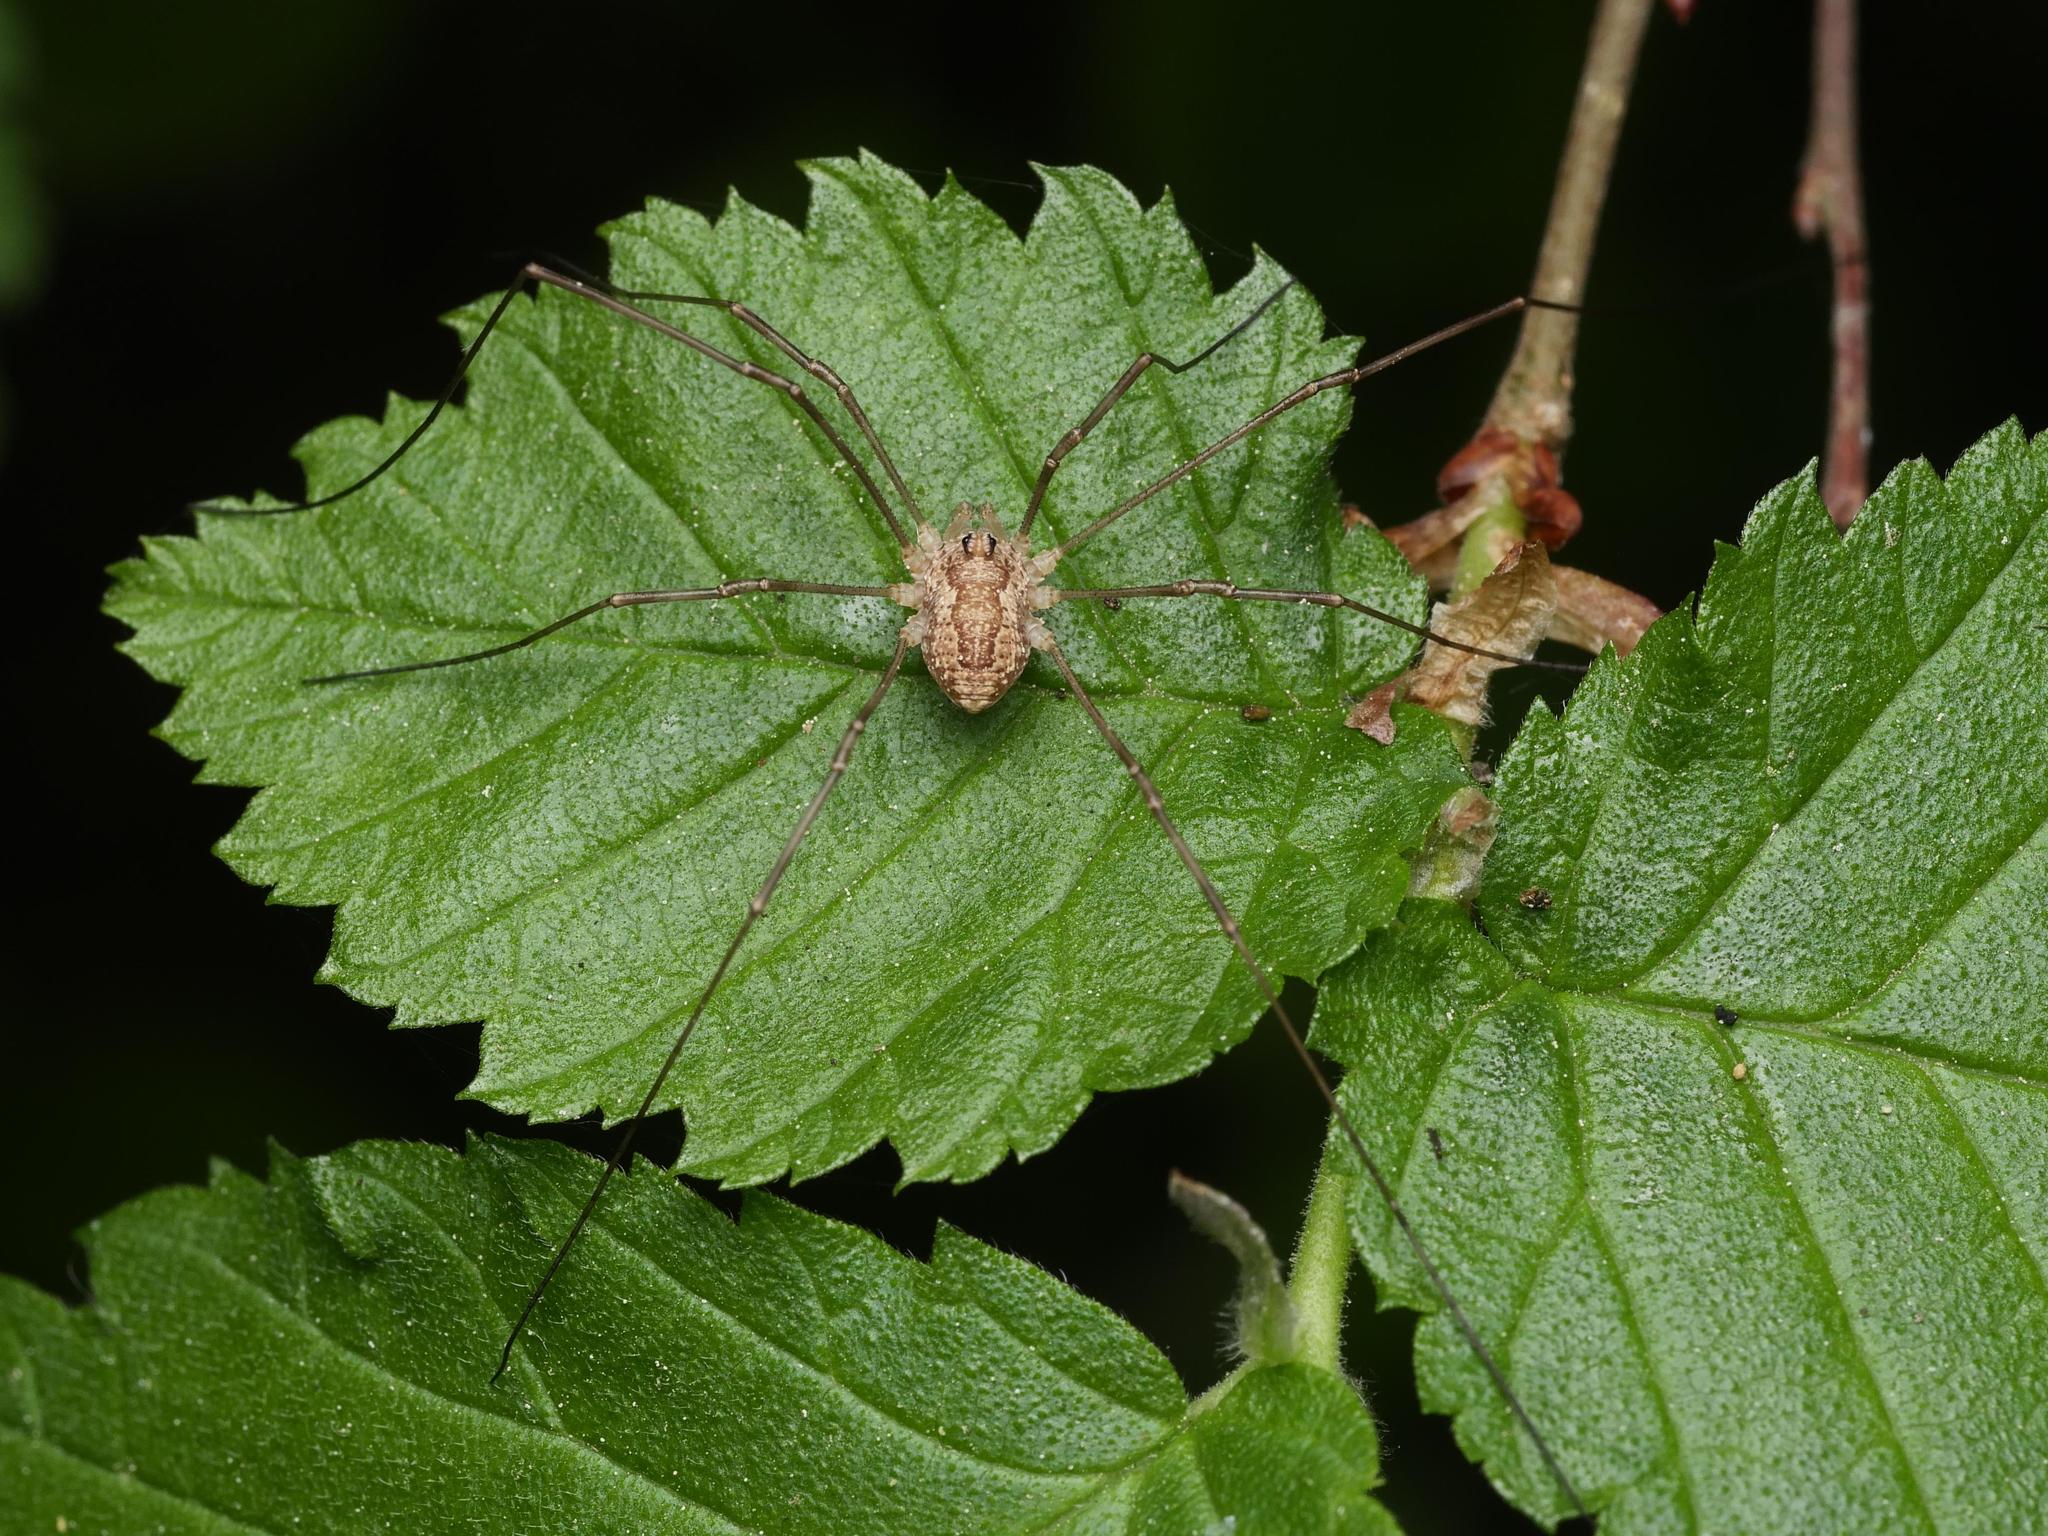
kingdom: Animalia
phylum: Arthropoda
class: Arachnida
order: Opiliones
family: Phalangiidae
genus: Rilaena
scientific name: Rilaena triangularis
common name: Spring harvestman
